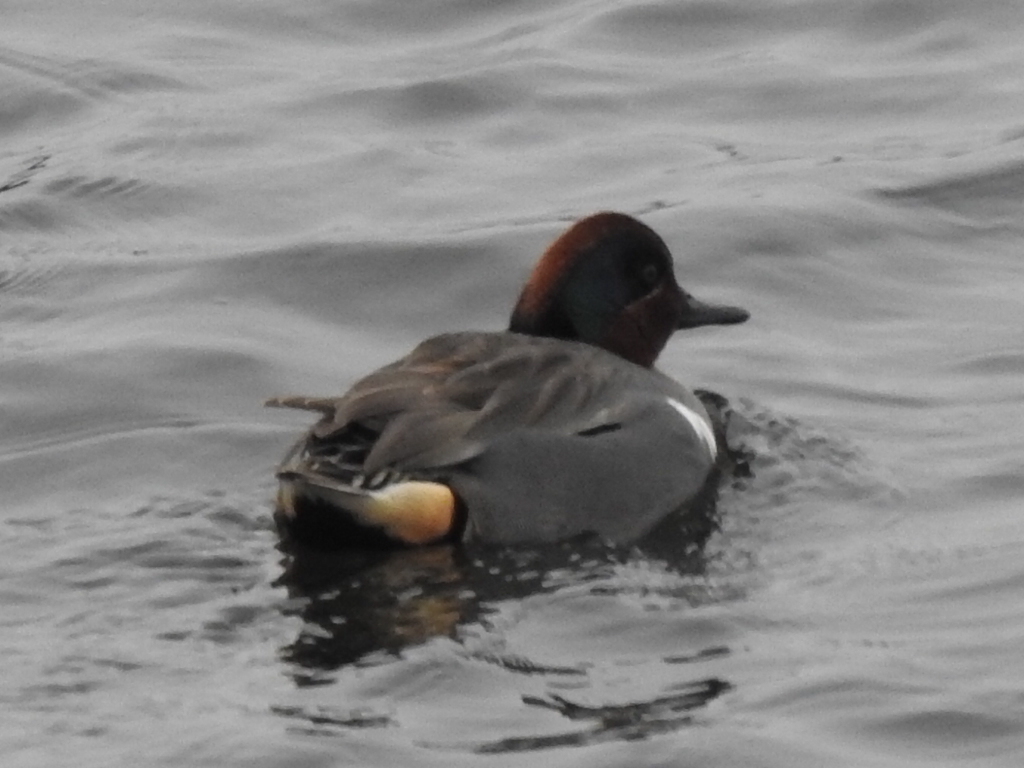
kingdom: Animalia
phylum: Chordata
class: Aves
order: Anseriformes
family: Anatidae
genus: Anas
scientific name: Anas crecca
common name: Eurasian teal
